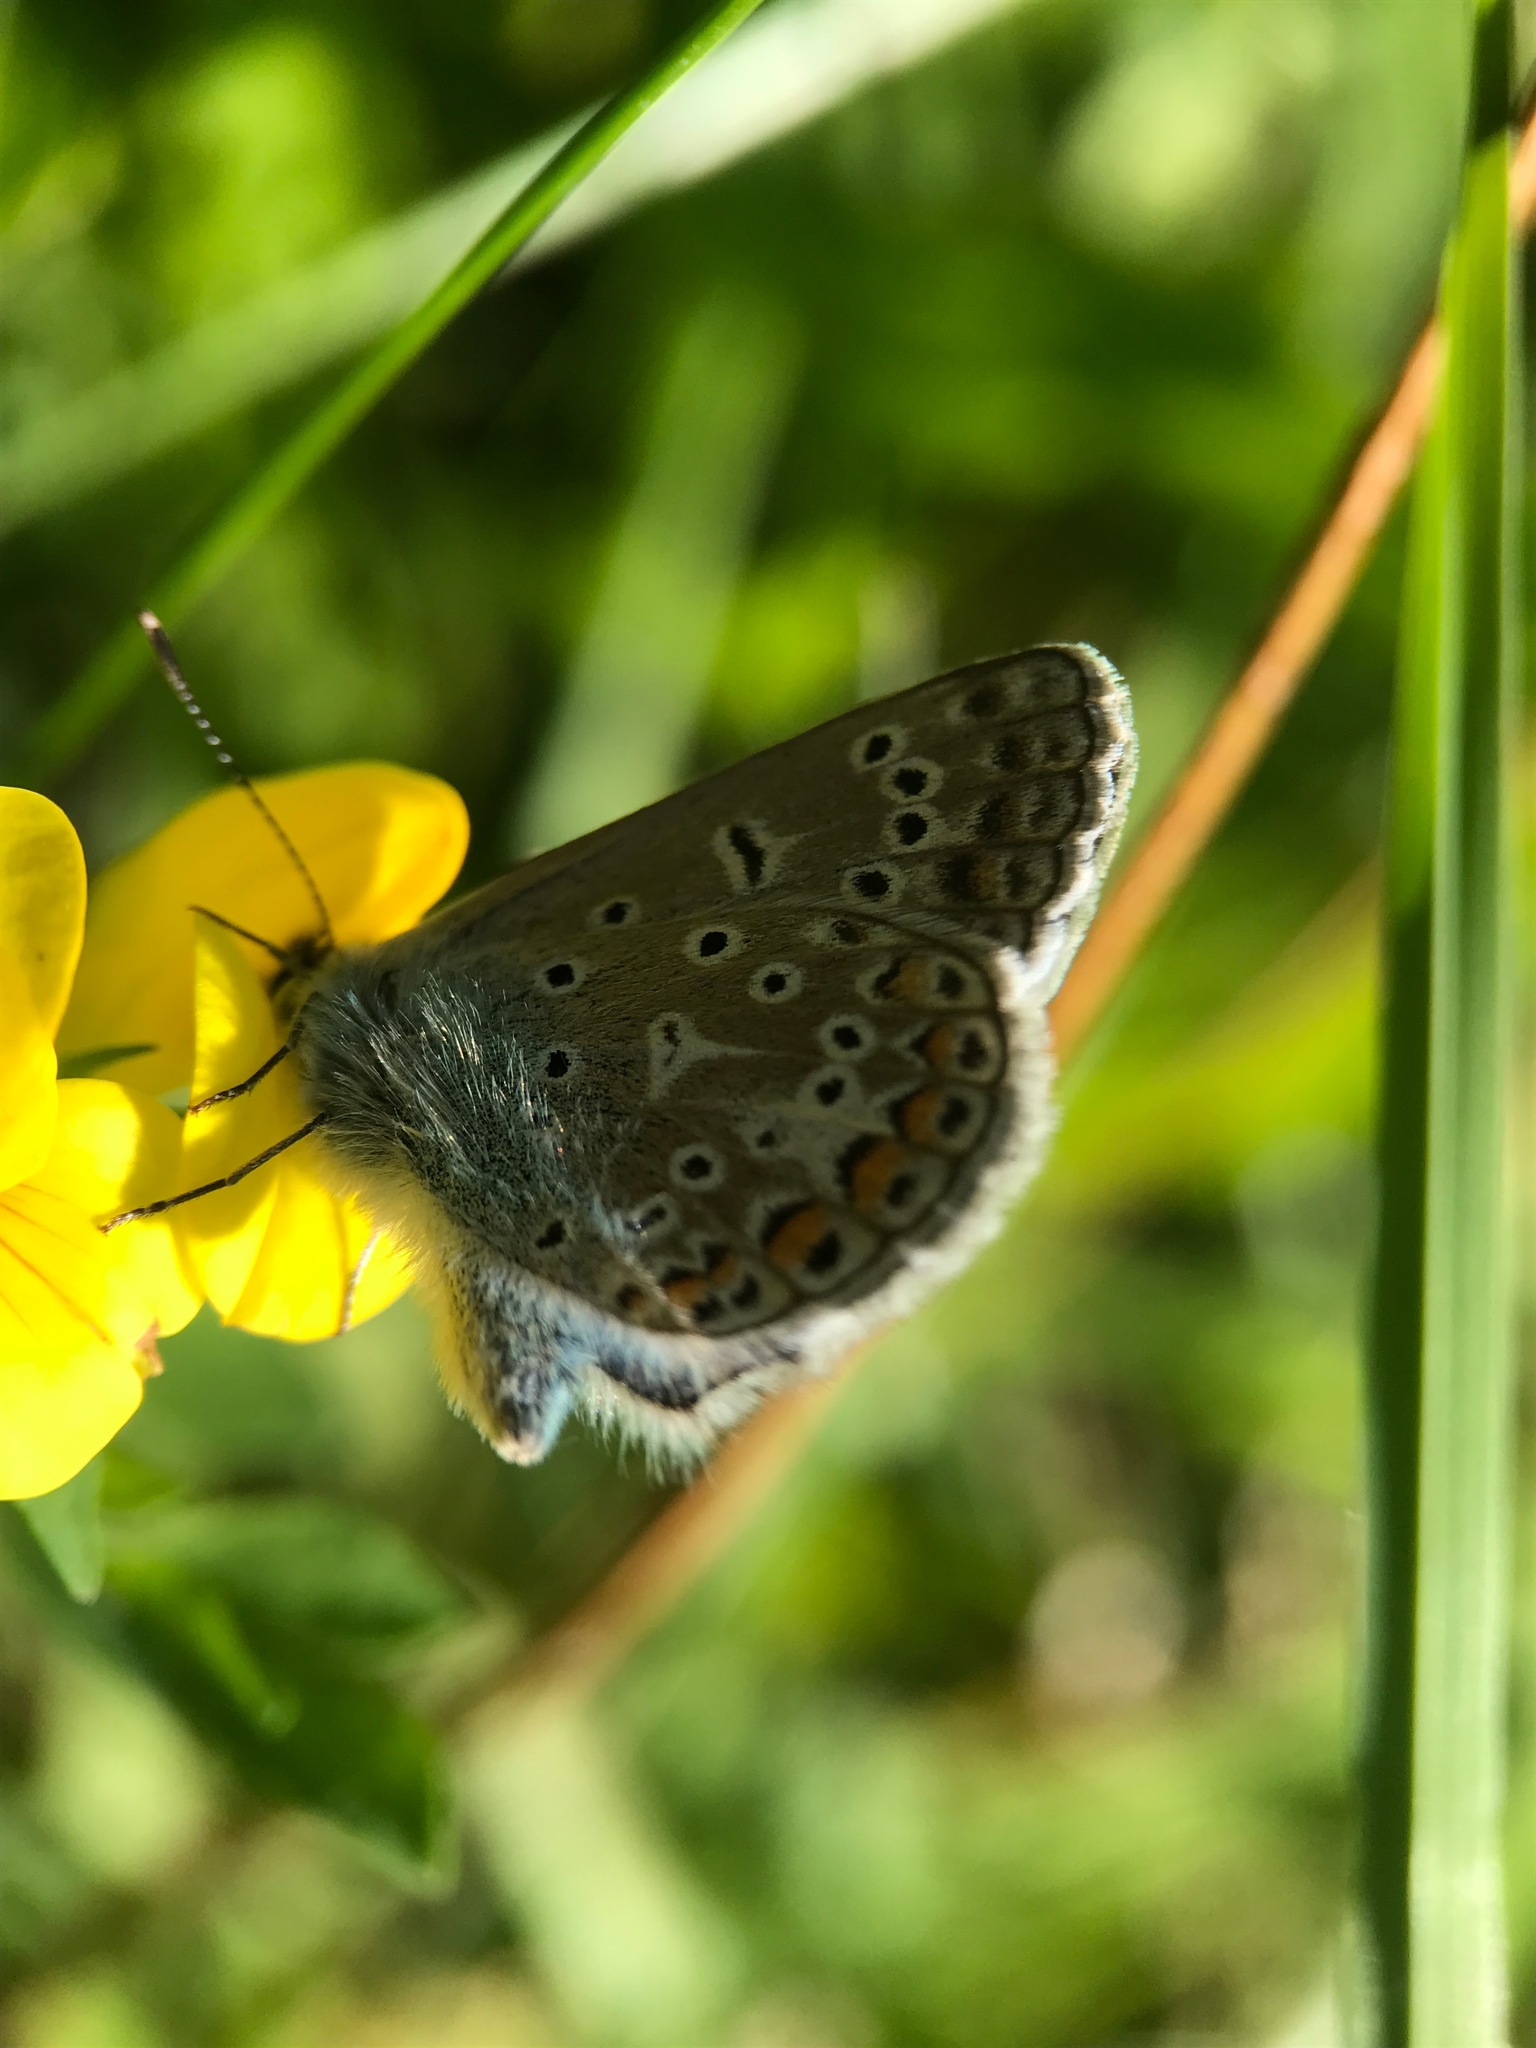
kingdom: Animalia
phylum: Arthropoda
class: Insecta
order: Lepidoptera
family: Lycaenidae
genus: Polyommatus
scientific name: Polyommatus icarus
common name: Common blue
